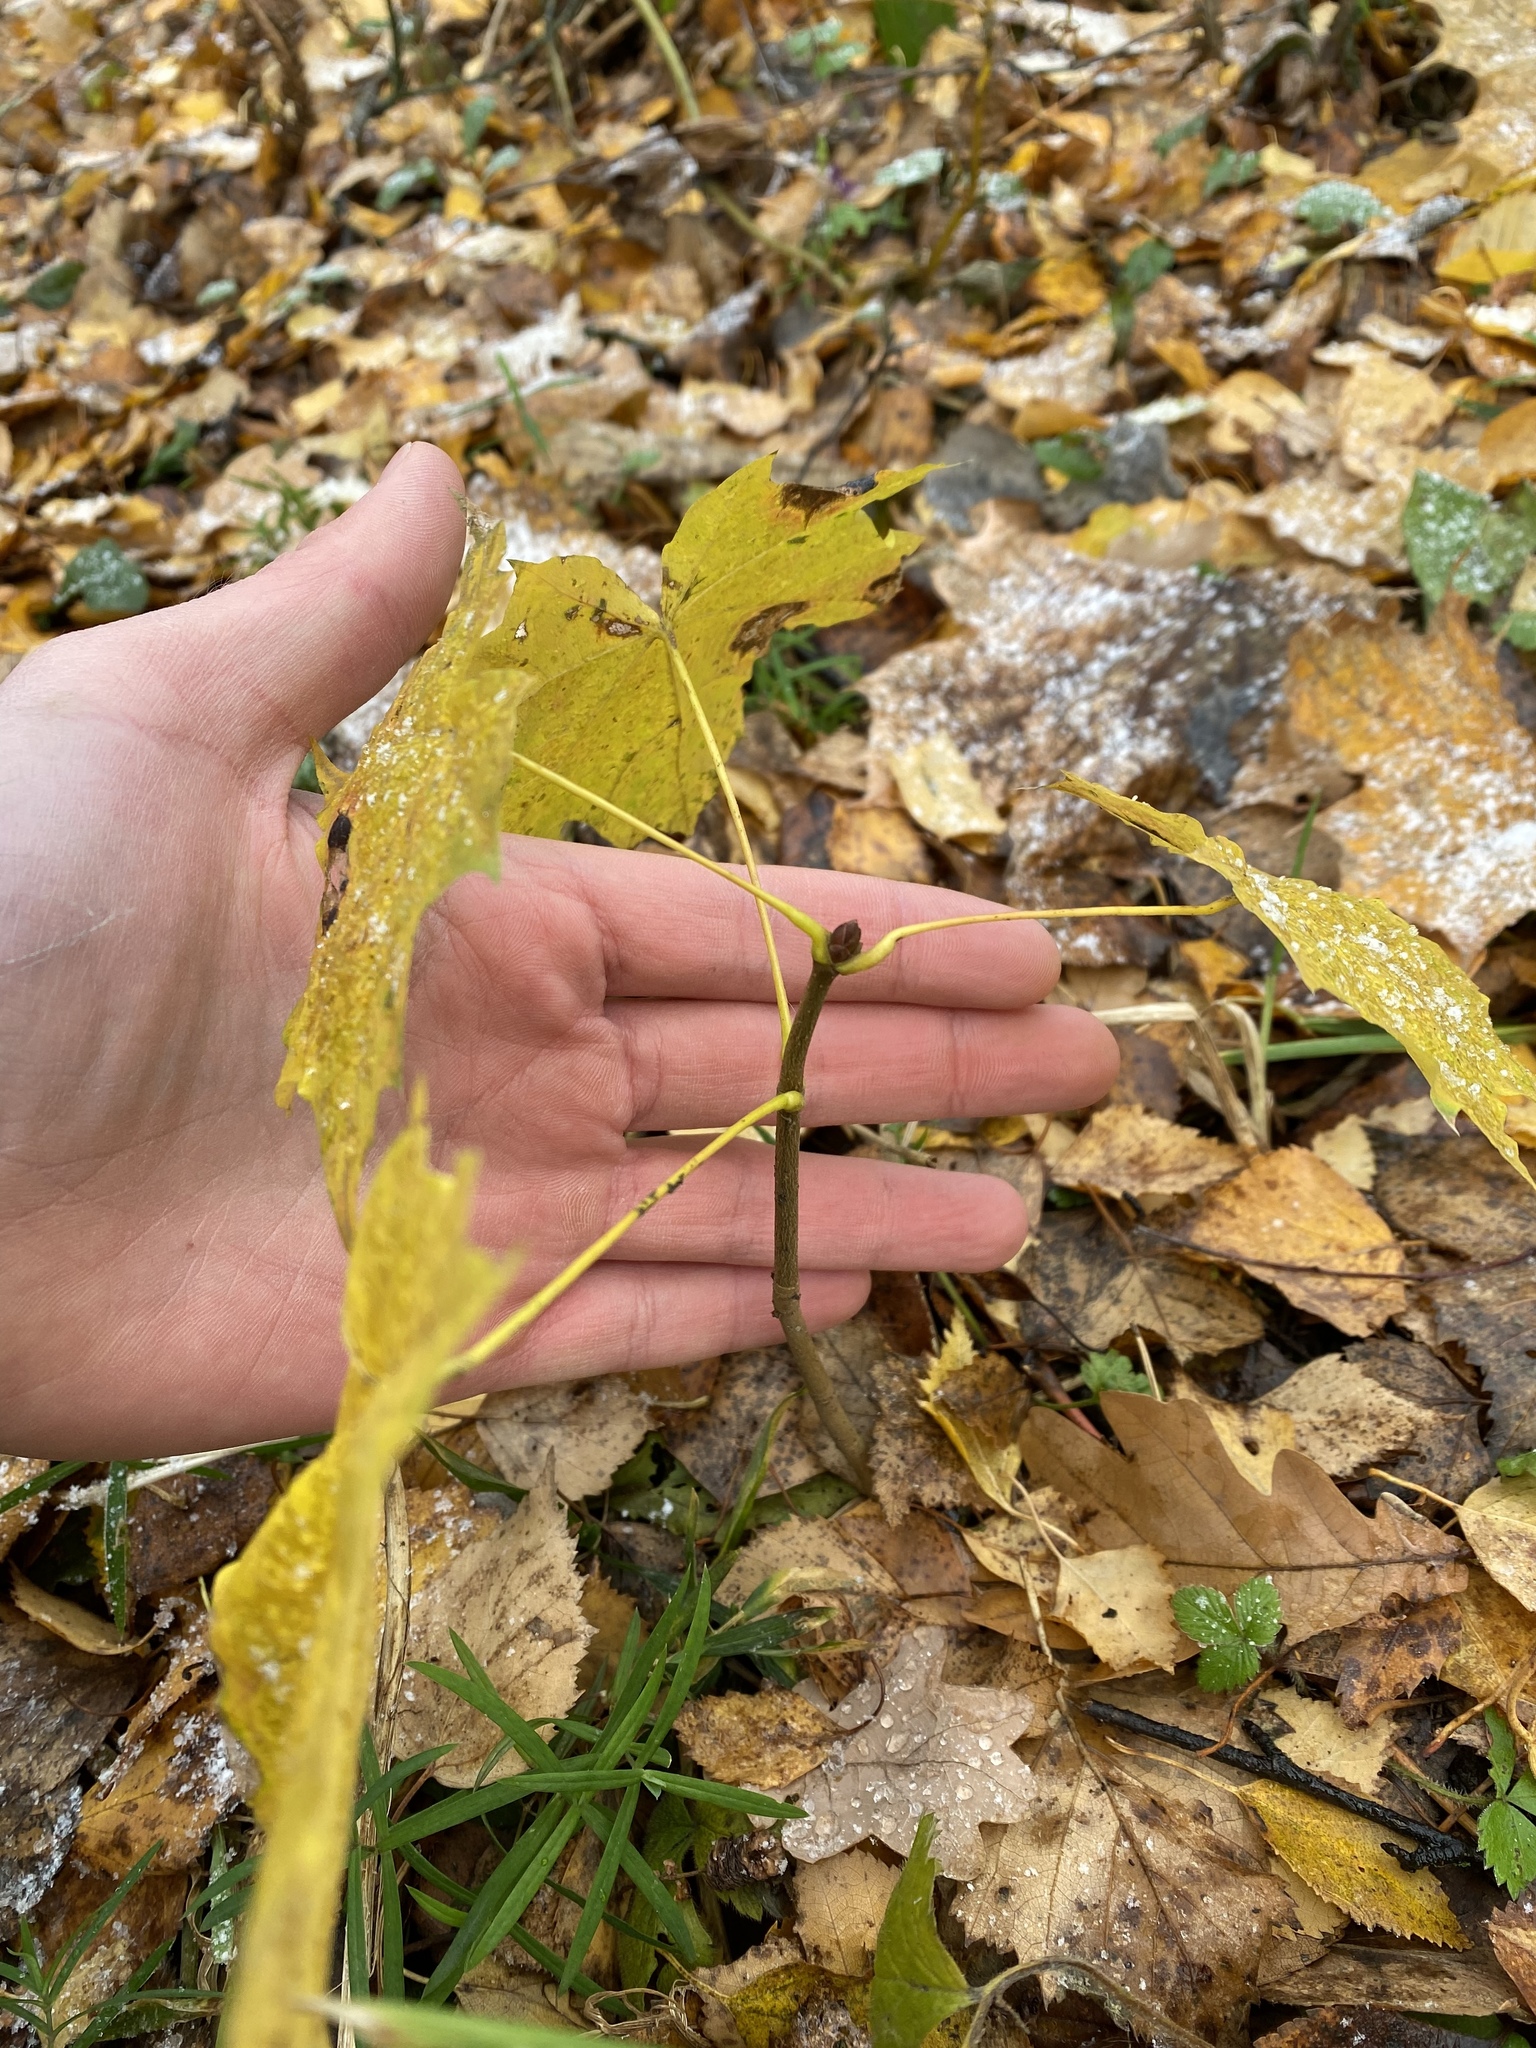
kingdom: Plantae
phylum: Tracheophyta
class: Magnoliopsida
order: Sapindales
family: Sapindaceae
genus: Acer
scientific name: Acer platanoides
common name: Norway maple
